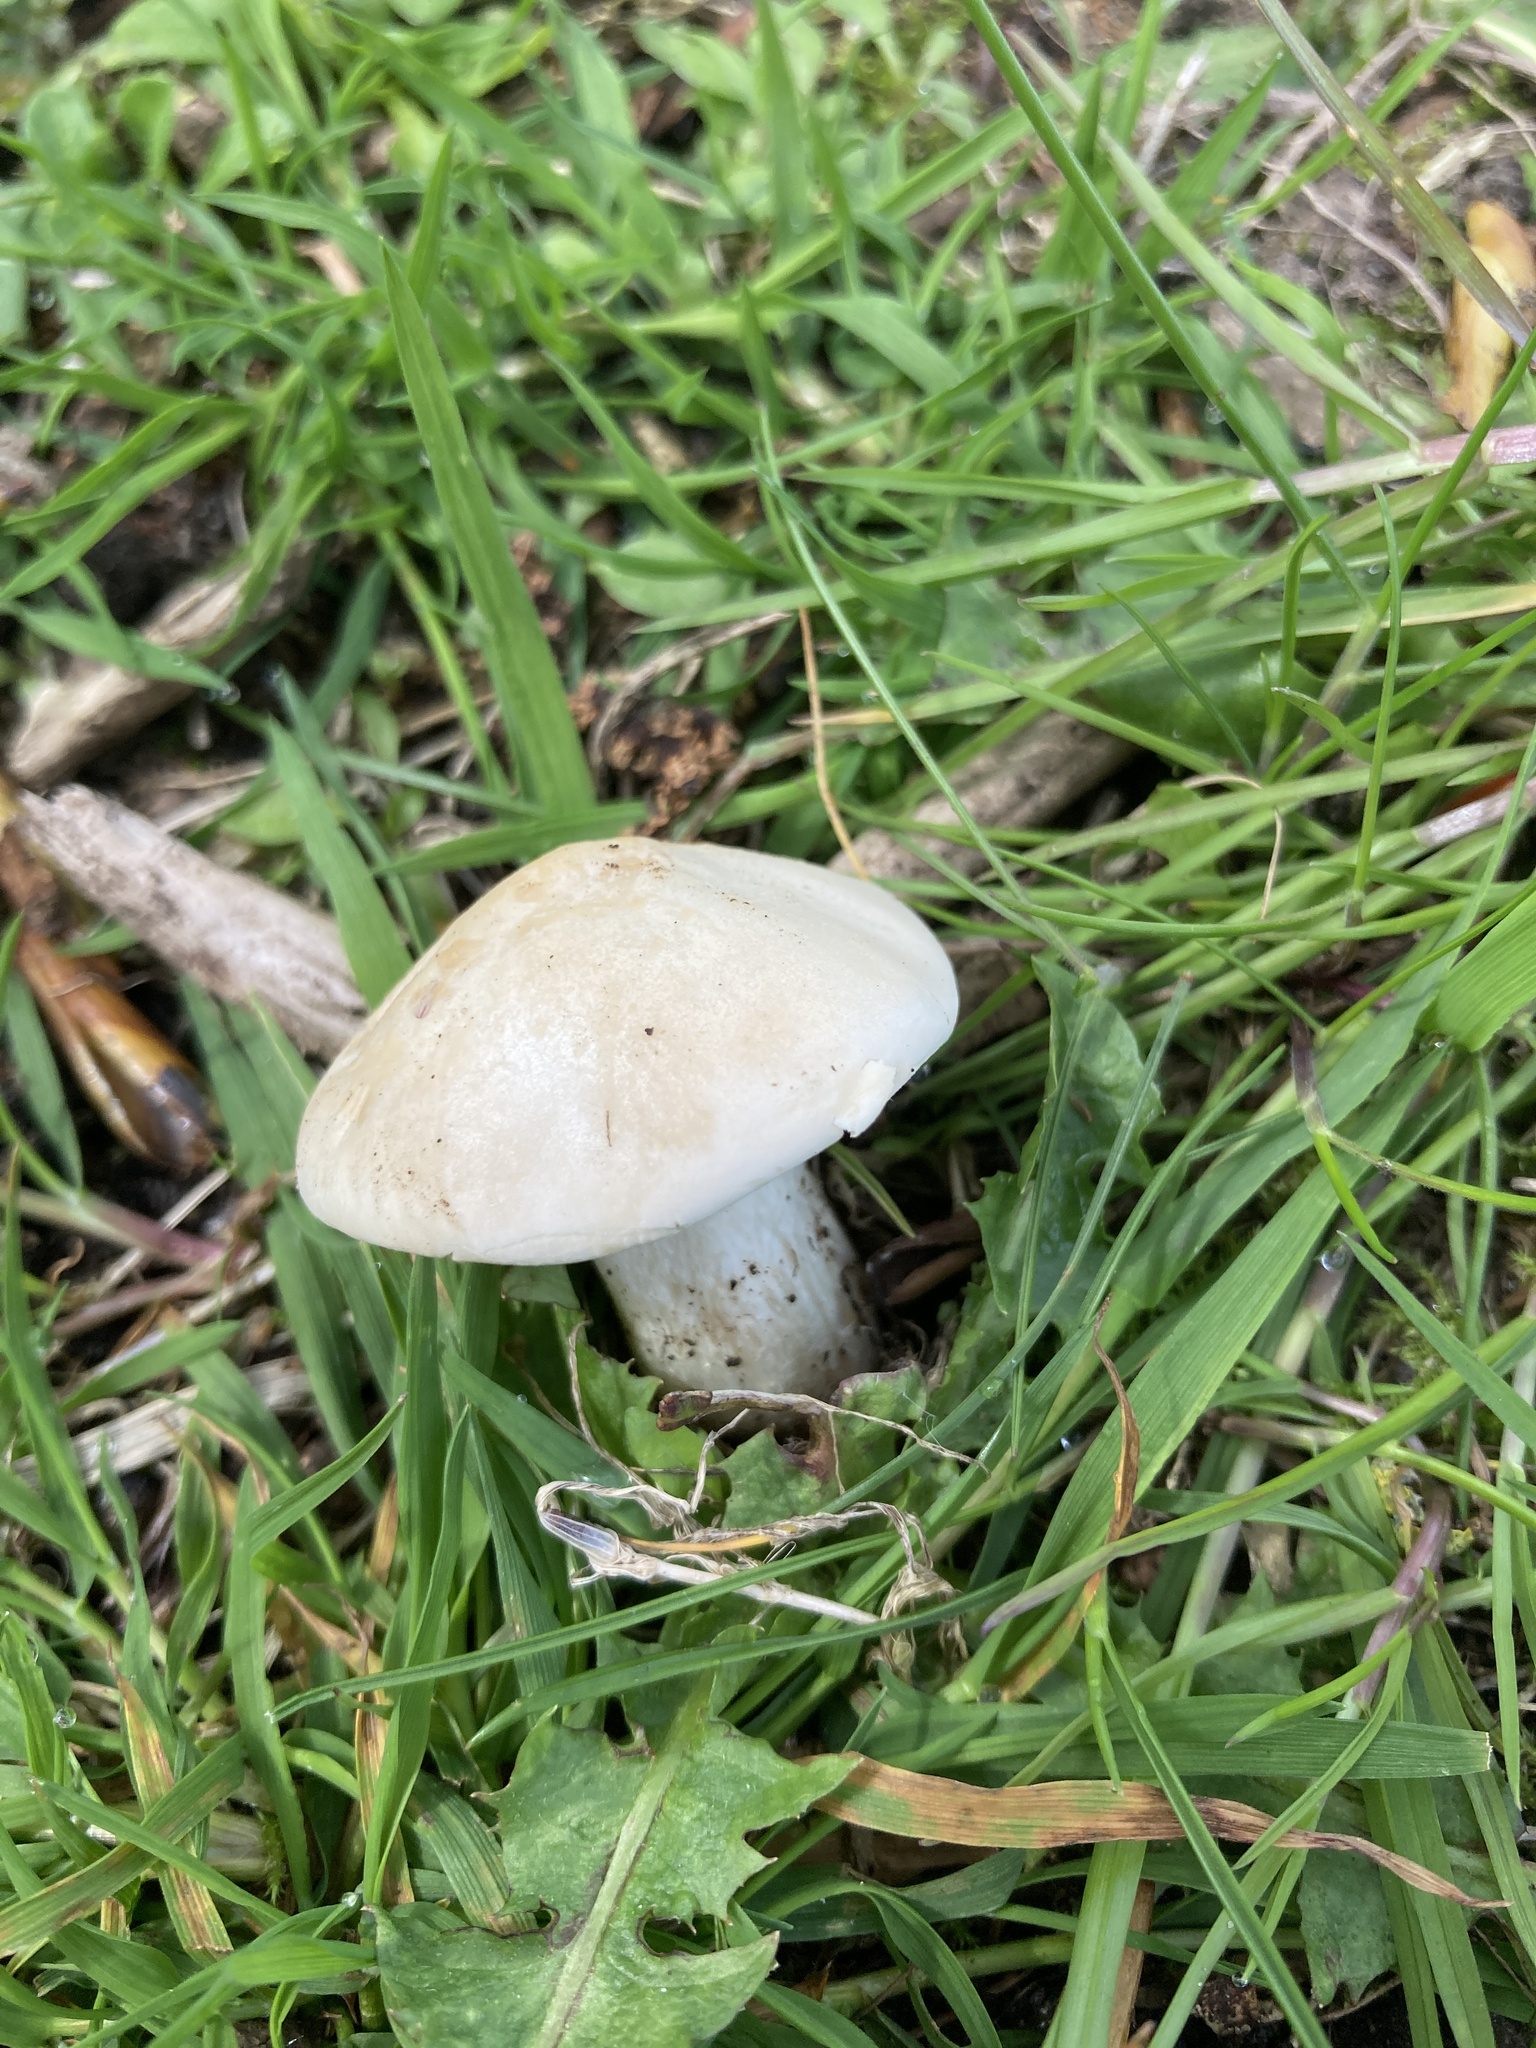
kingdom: Fungi
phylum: Basidiomycota
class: Agaricomycetes
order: Agaricales
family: Lyophyllaceae
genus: Calocybe
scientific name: Calocybe gambosa
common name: St. george's mushroom
